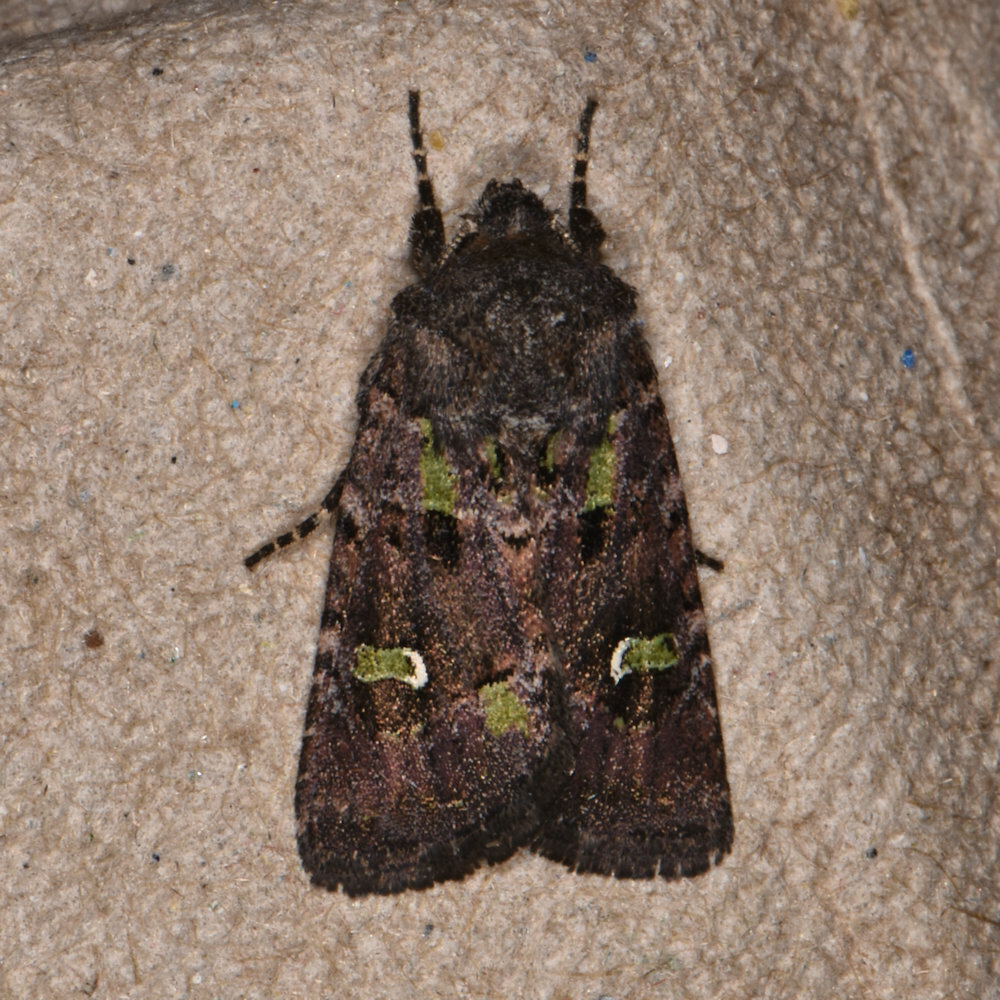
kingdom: Animalia
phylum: Arthropoda
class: Insecta
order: Lepidoptera
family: Noctuidae
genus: Lacinipolia
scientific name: Lacinipolia renigera
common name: Kidney-spotted minor
